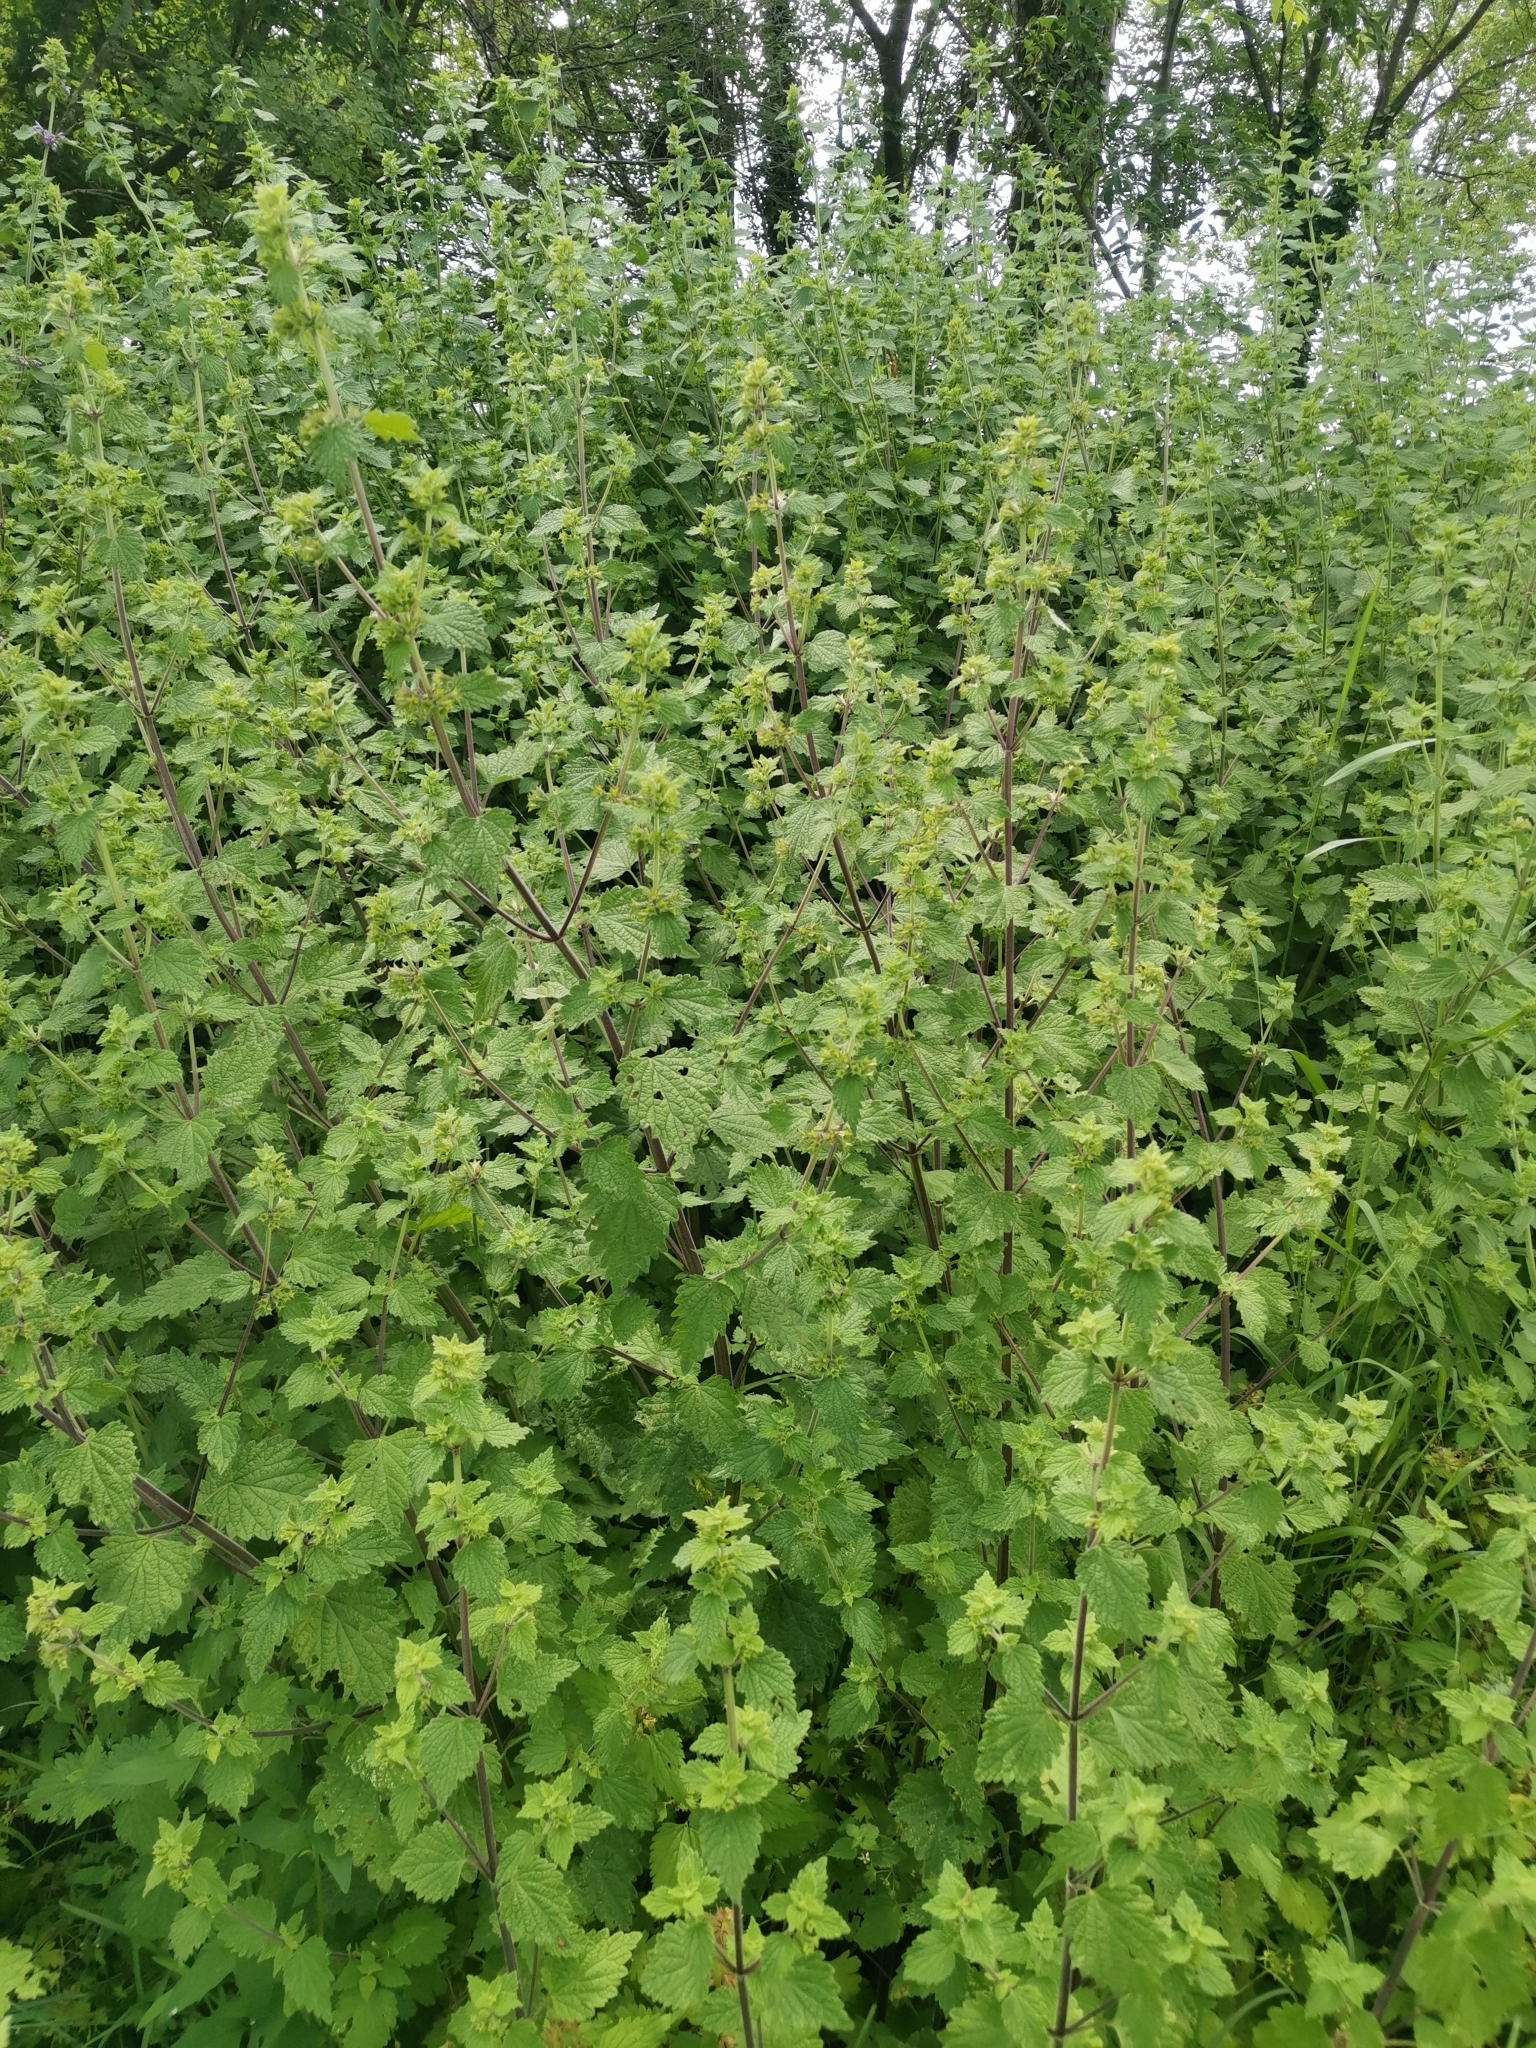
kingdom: Plantae
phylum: Tracheophyta
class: Magnoliopsida
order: Lamiales
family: Lamiaceae
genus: Ballota
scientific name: Ballota nigra
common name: Black horehound
